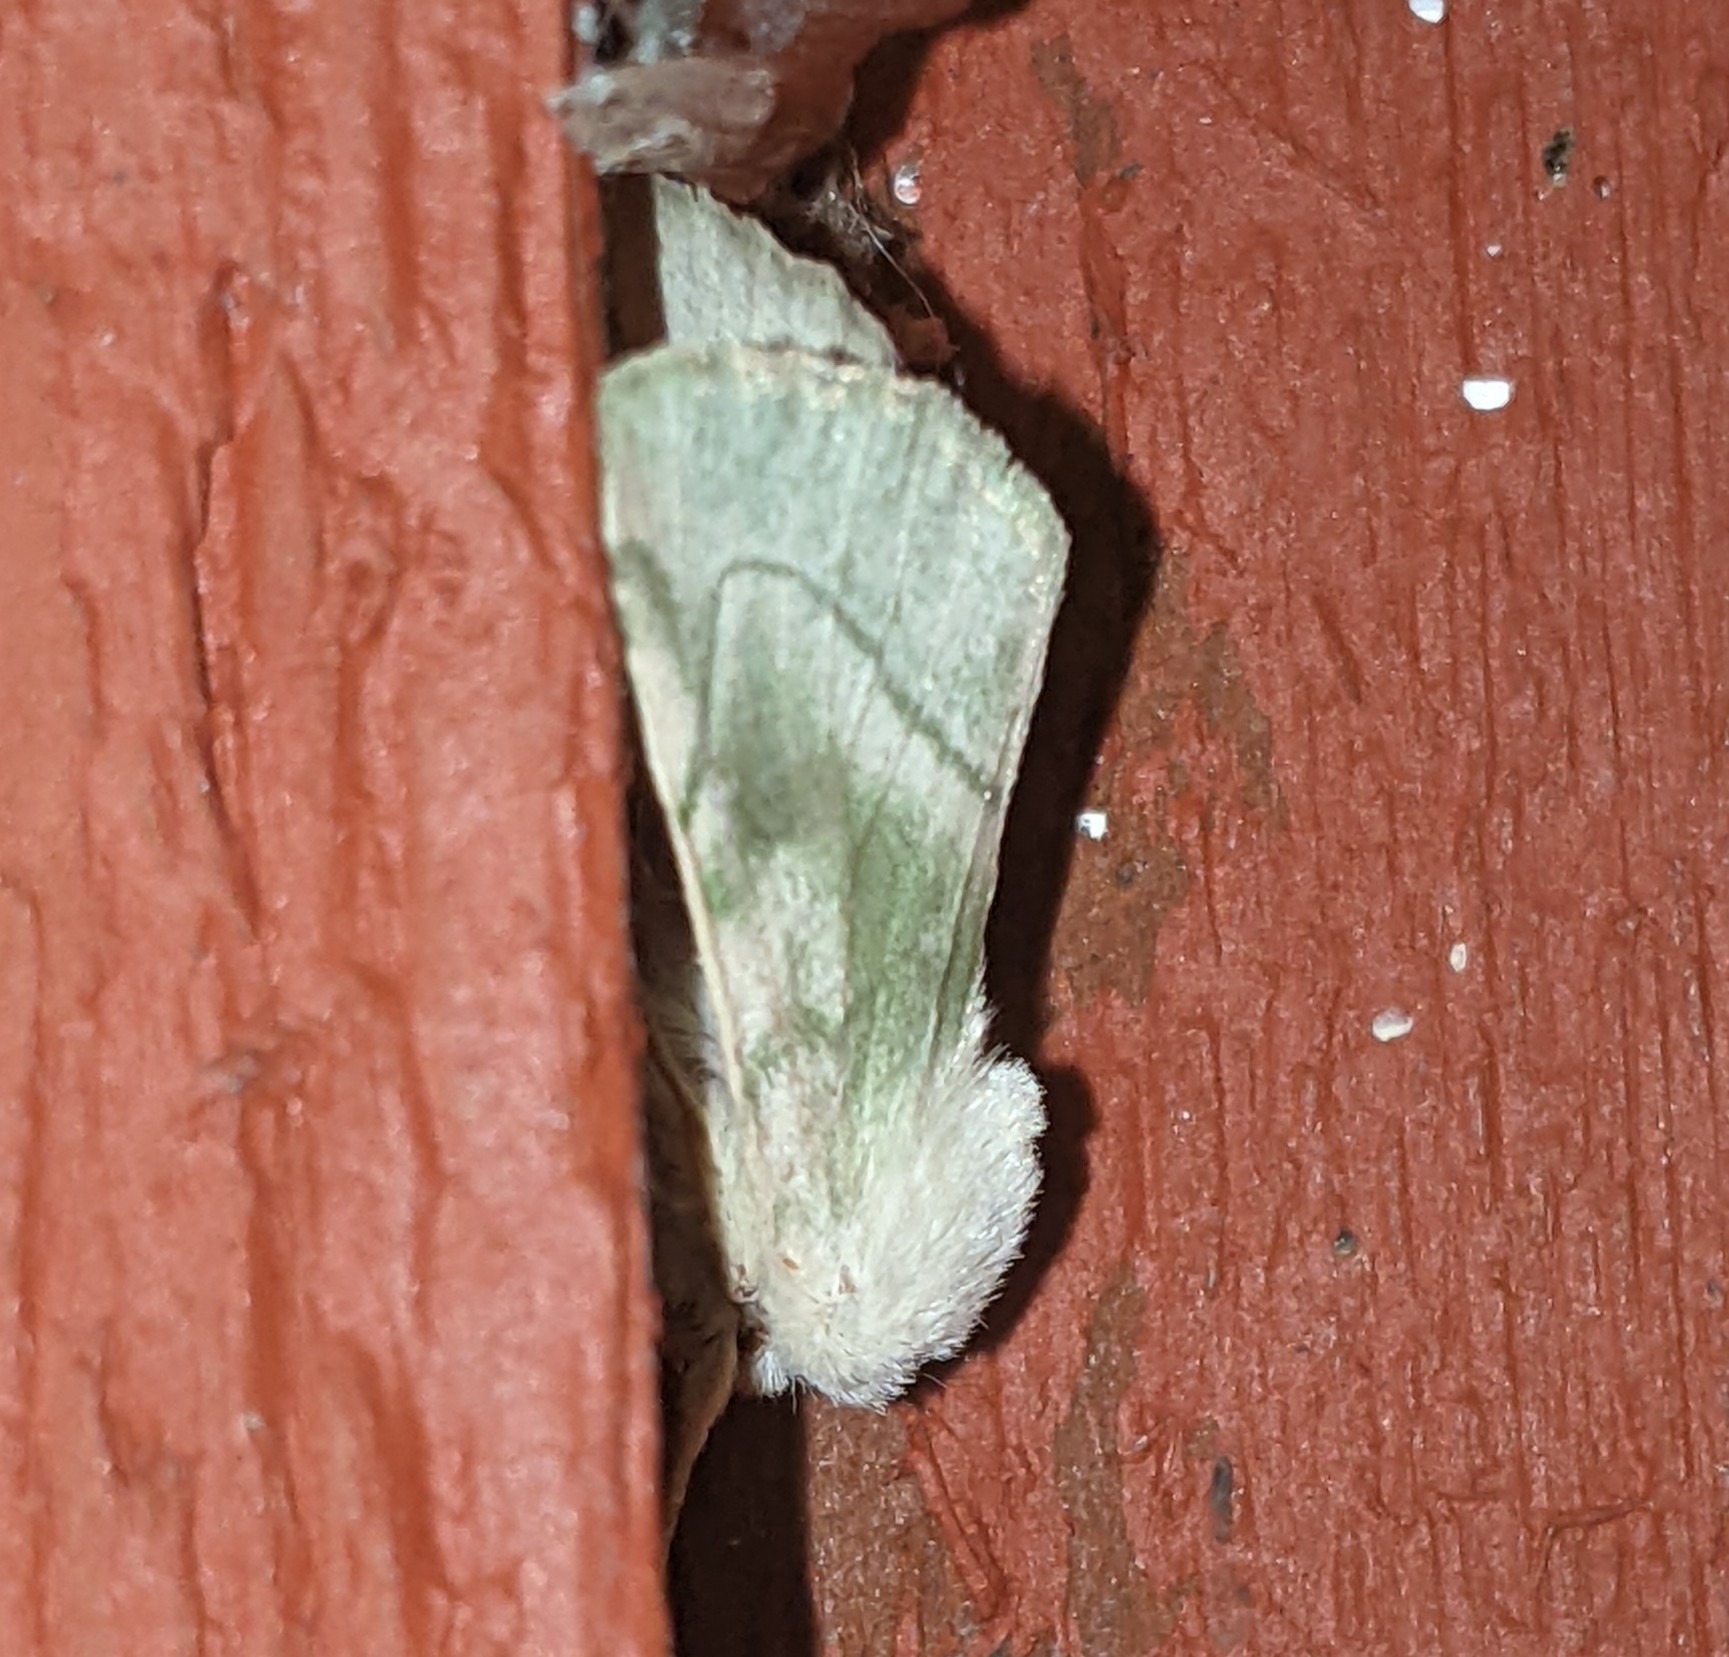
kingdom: Animalia
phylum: Arthropoda
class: Insecta
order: Lepidoptera
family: Noctuidae
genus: Zotheca
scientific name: Zotheca tranquilla
